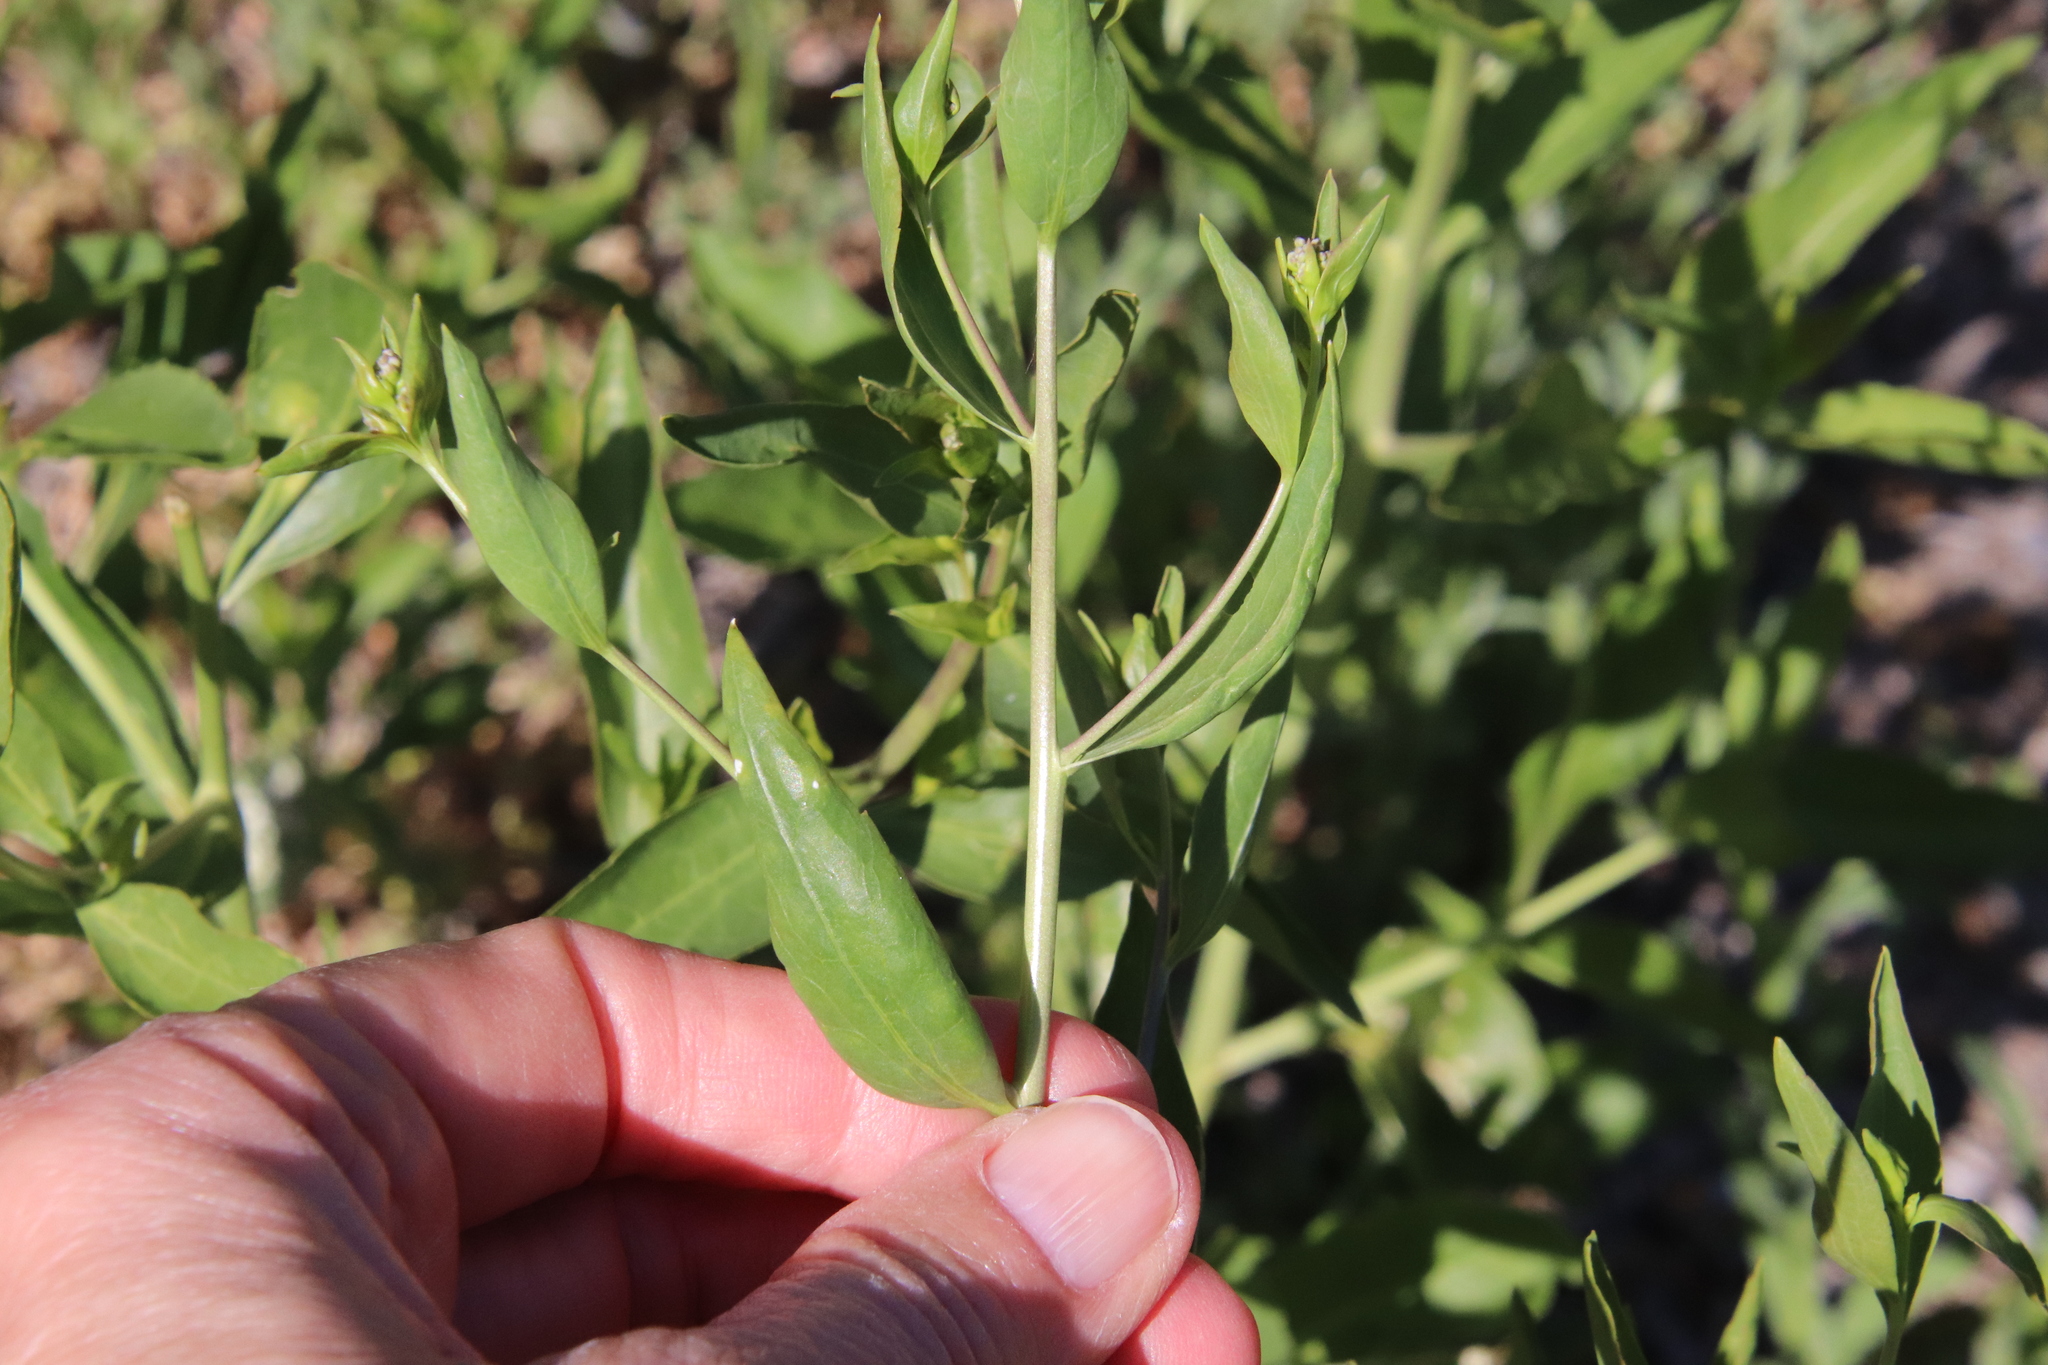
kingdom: Plantae
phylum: Tracheophyta
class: Magnoliopsida
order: Brassicales
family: Brassicaceae
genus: Lepidium
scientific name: Lepidium latifolium
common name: Dittander
